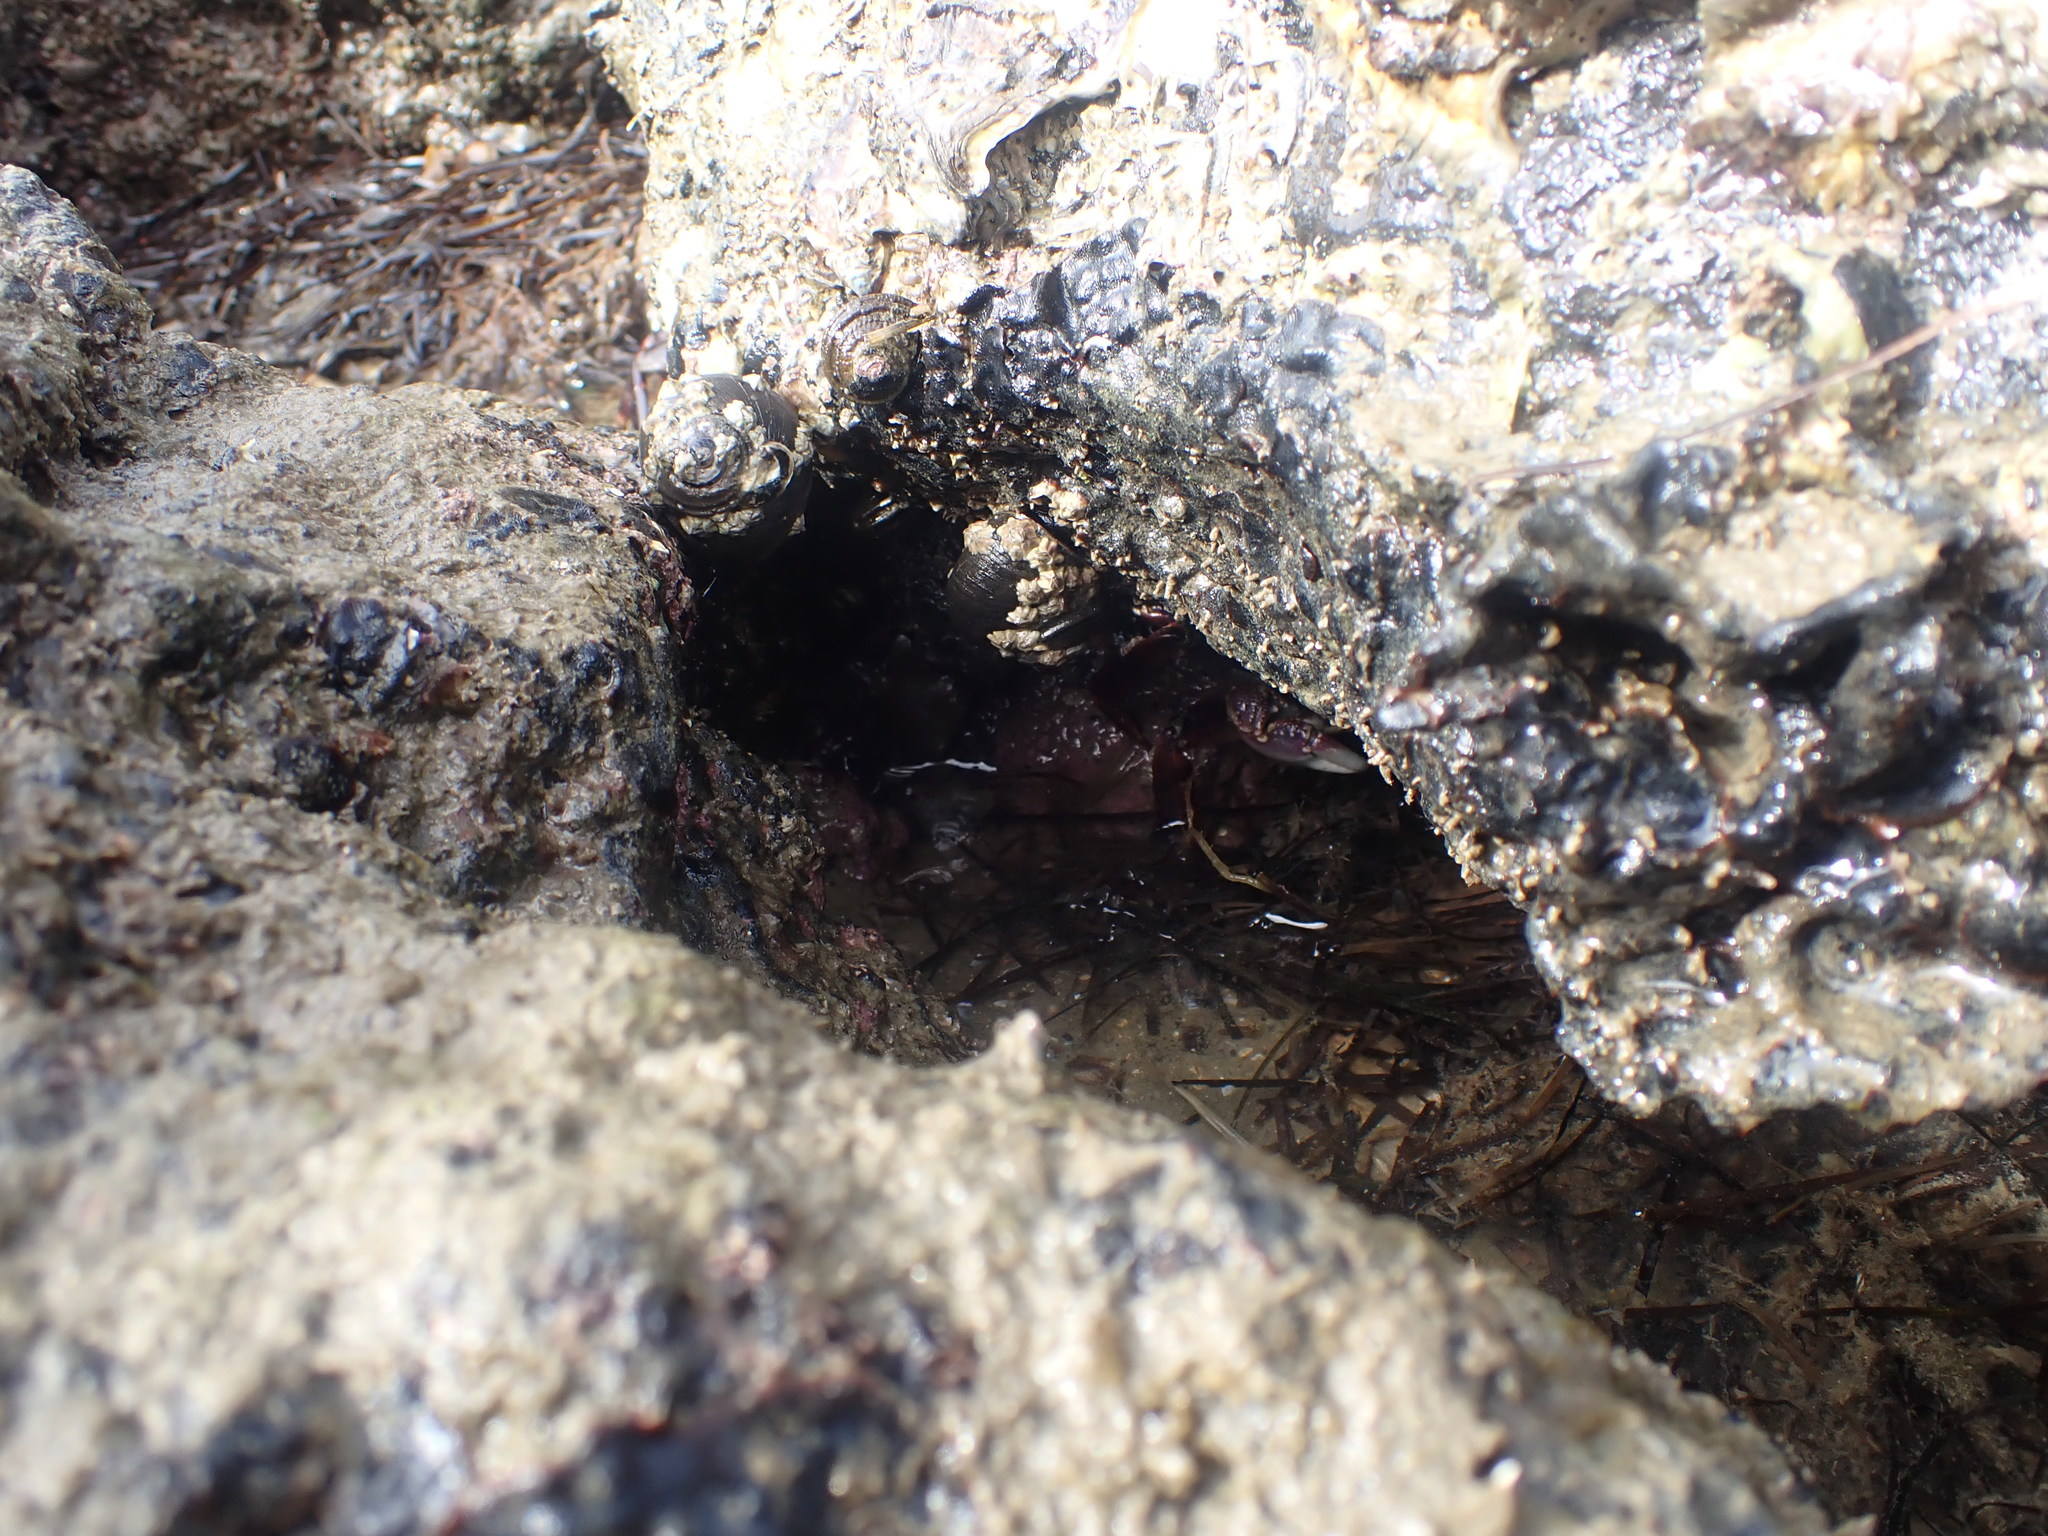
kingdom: Animalia
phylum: Arthropoda
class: Malacostraca
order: Decapoda
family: Grapsidae
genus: Leptograpsus
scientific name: Leptograpsus variegatus
